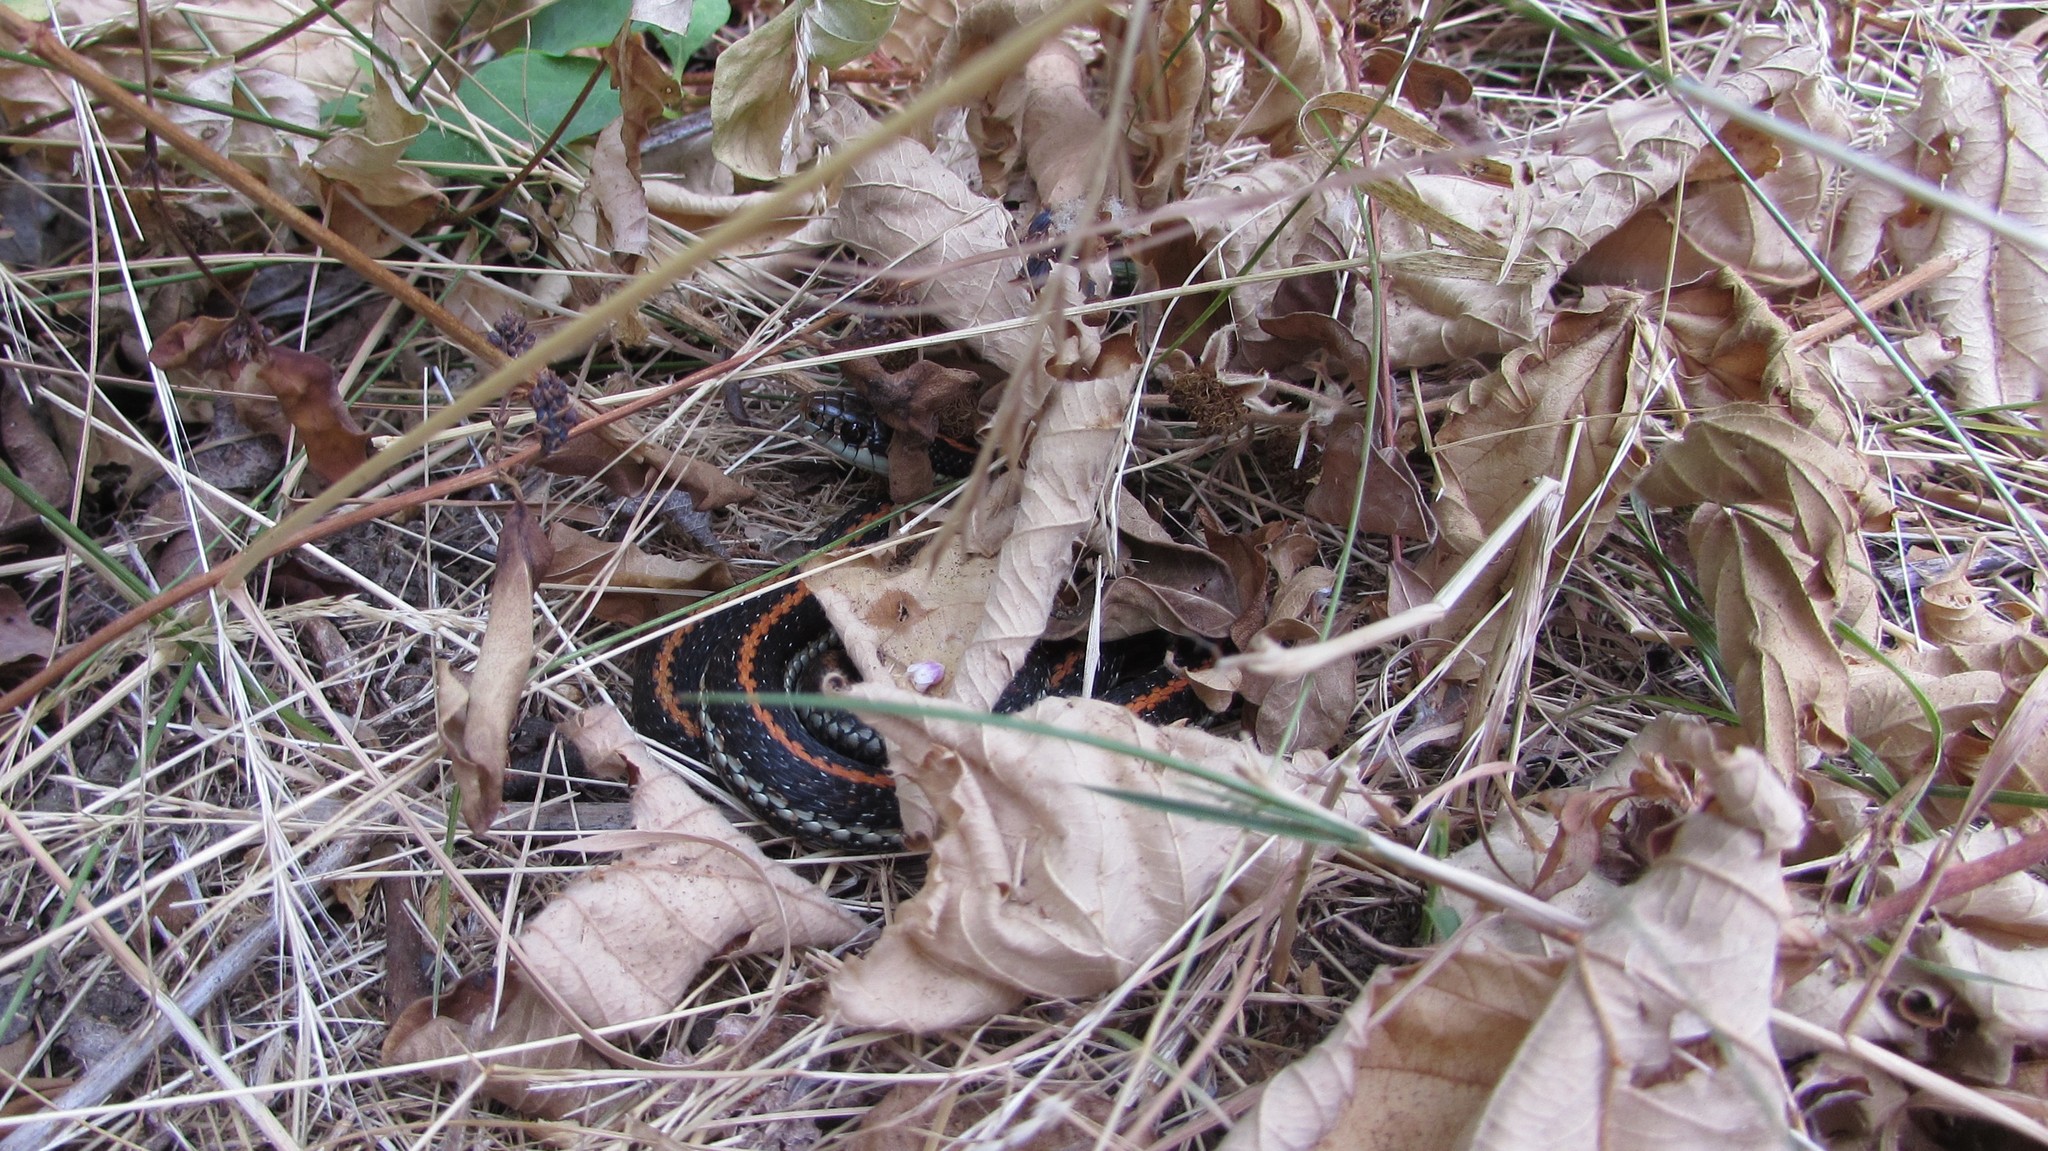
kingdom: Animalia
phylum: Chordata
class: Squamata
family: Colubridae
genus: Thamnophis
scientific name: Thamnophis ordinoides
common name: Northwestern garter snake
